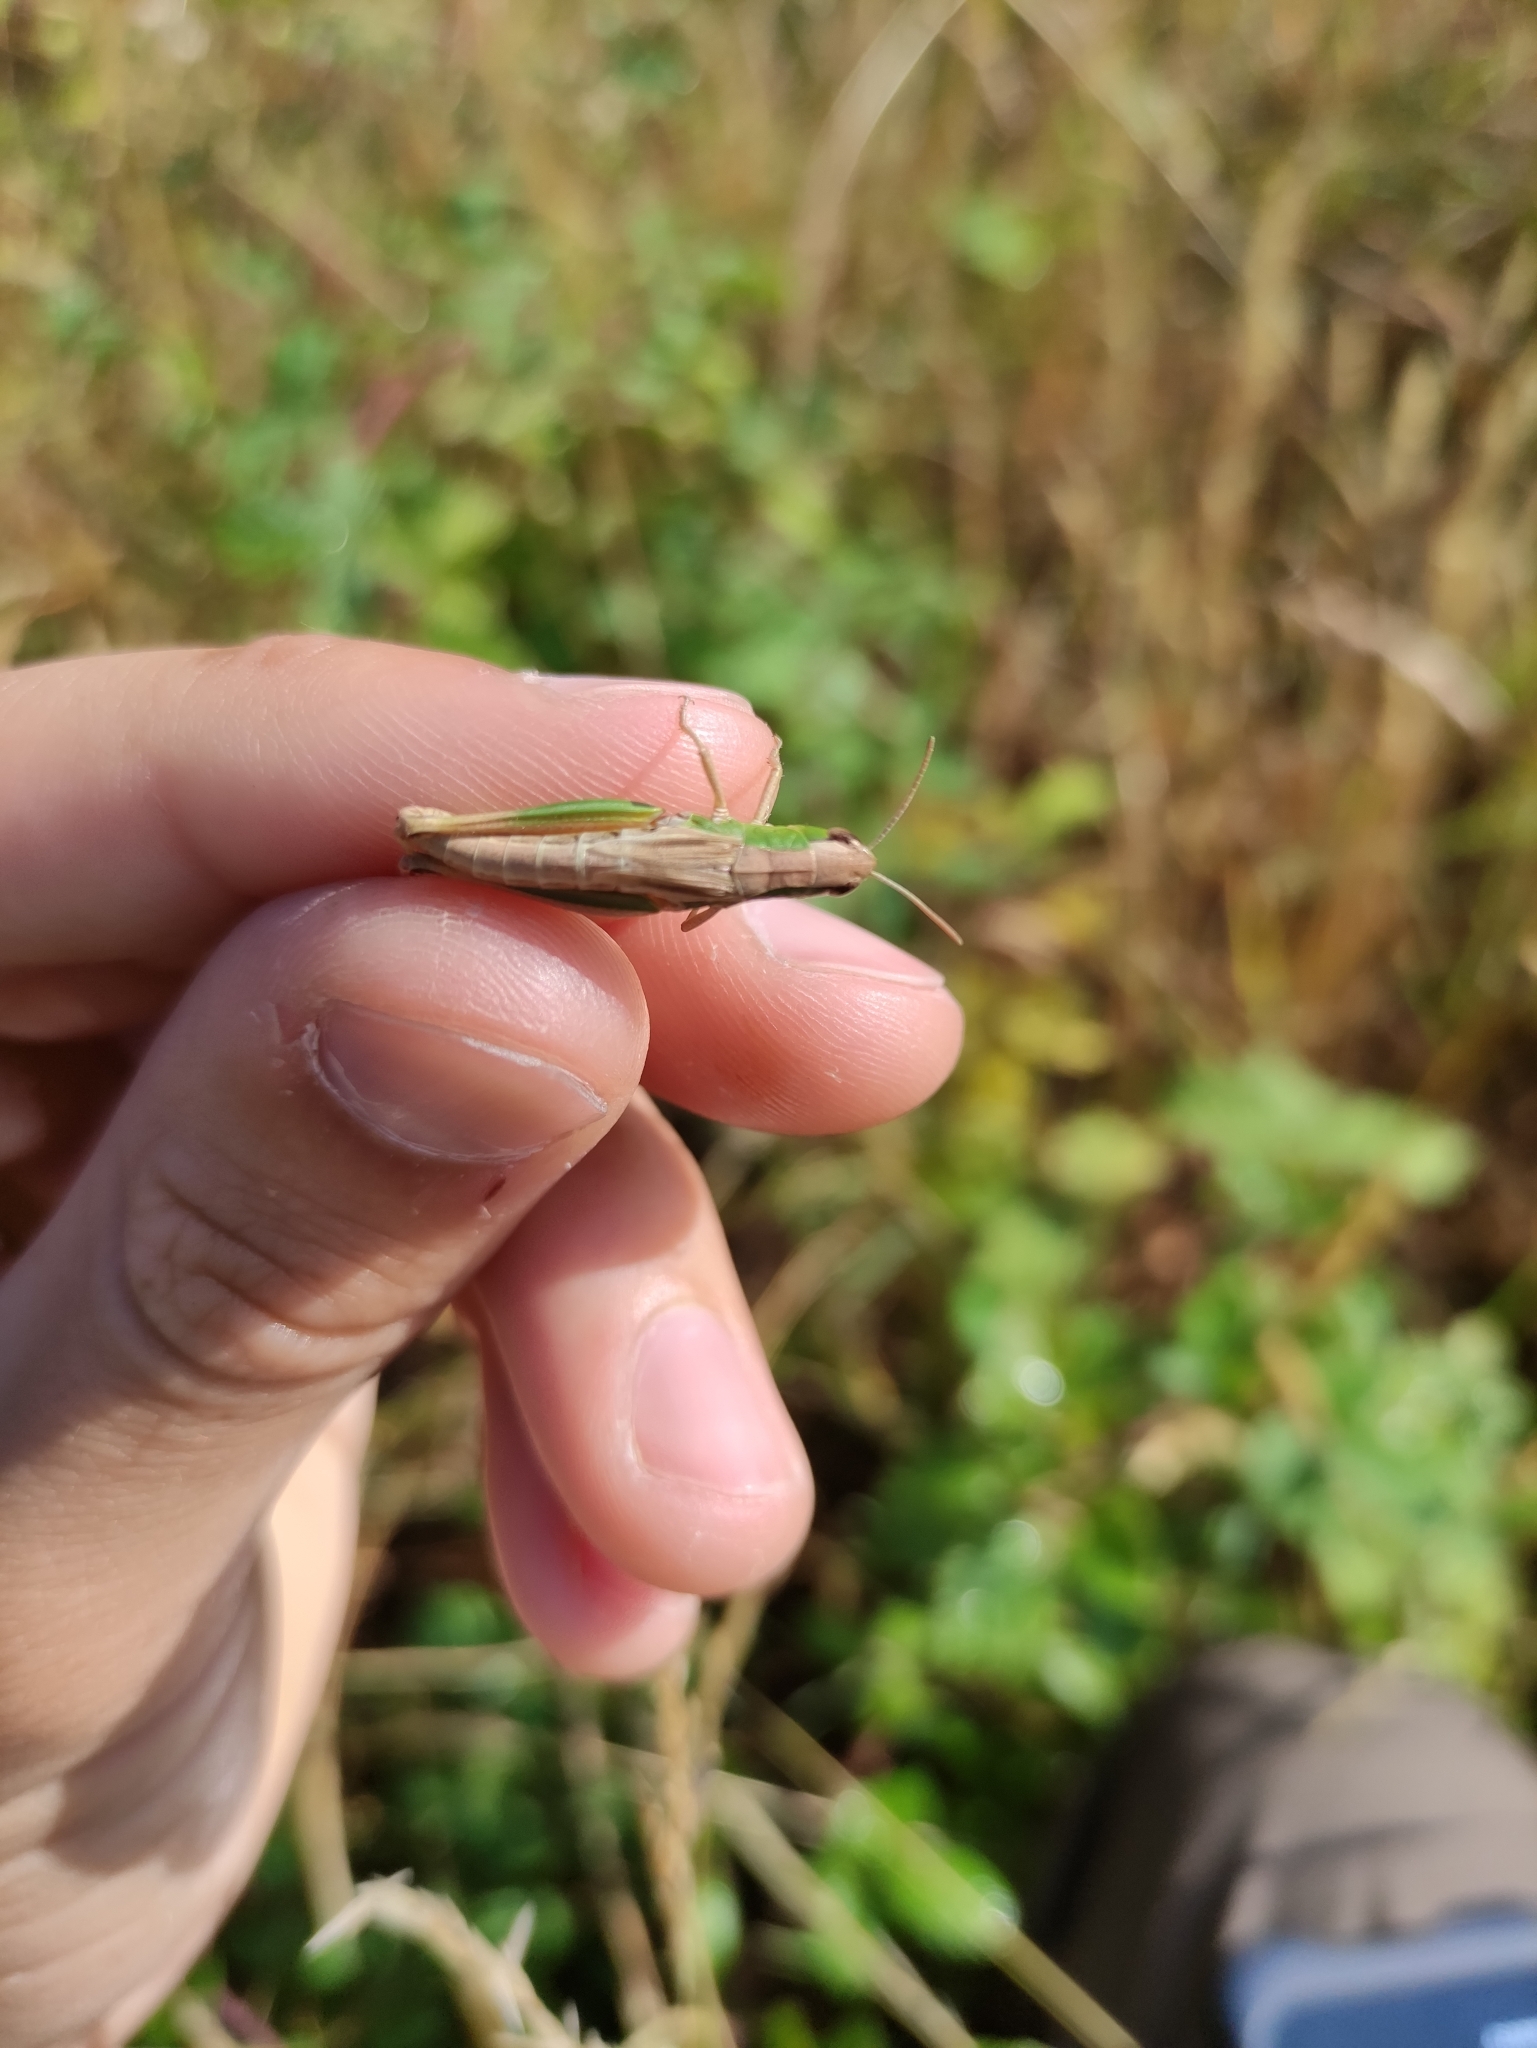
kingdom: Animalia
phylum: Arthropoda
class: Insecta
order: Orthoptera
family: Acrididae
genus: Pseudochorthippus
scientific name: Pseudochorthippus parallelus
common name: Meadow grasshopper
